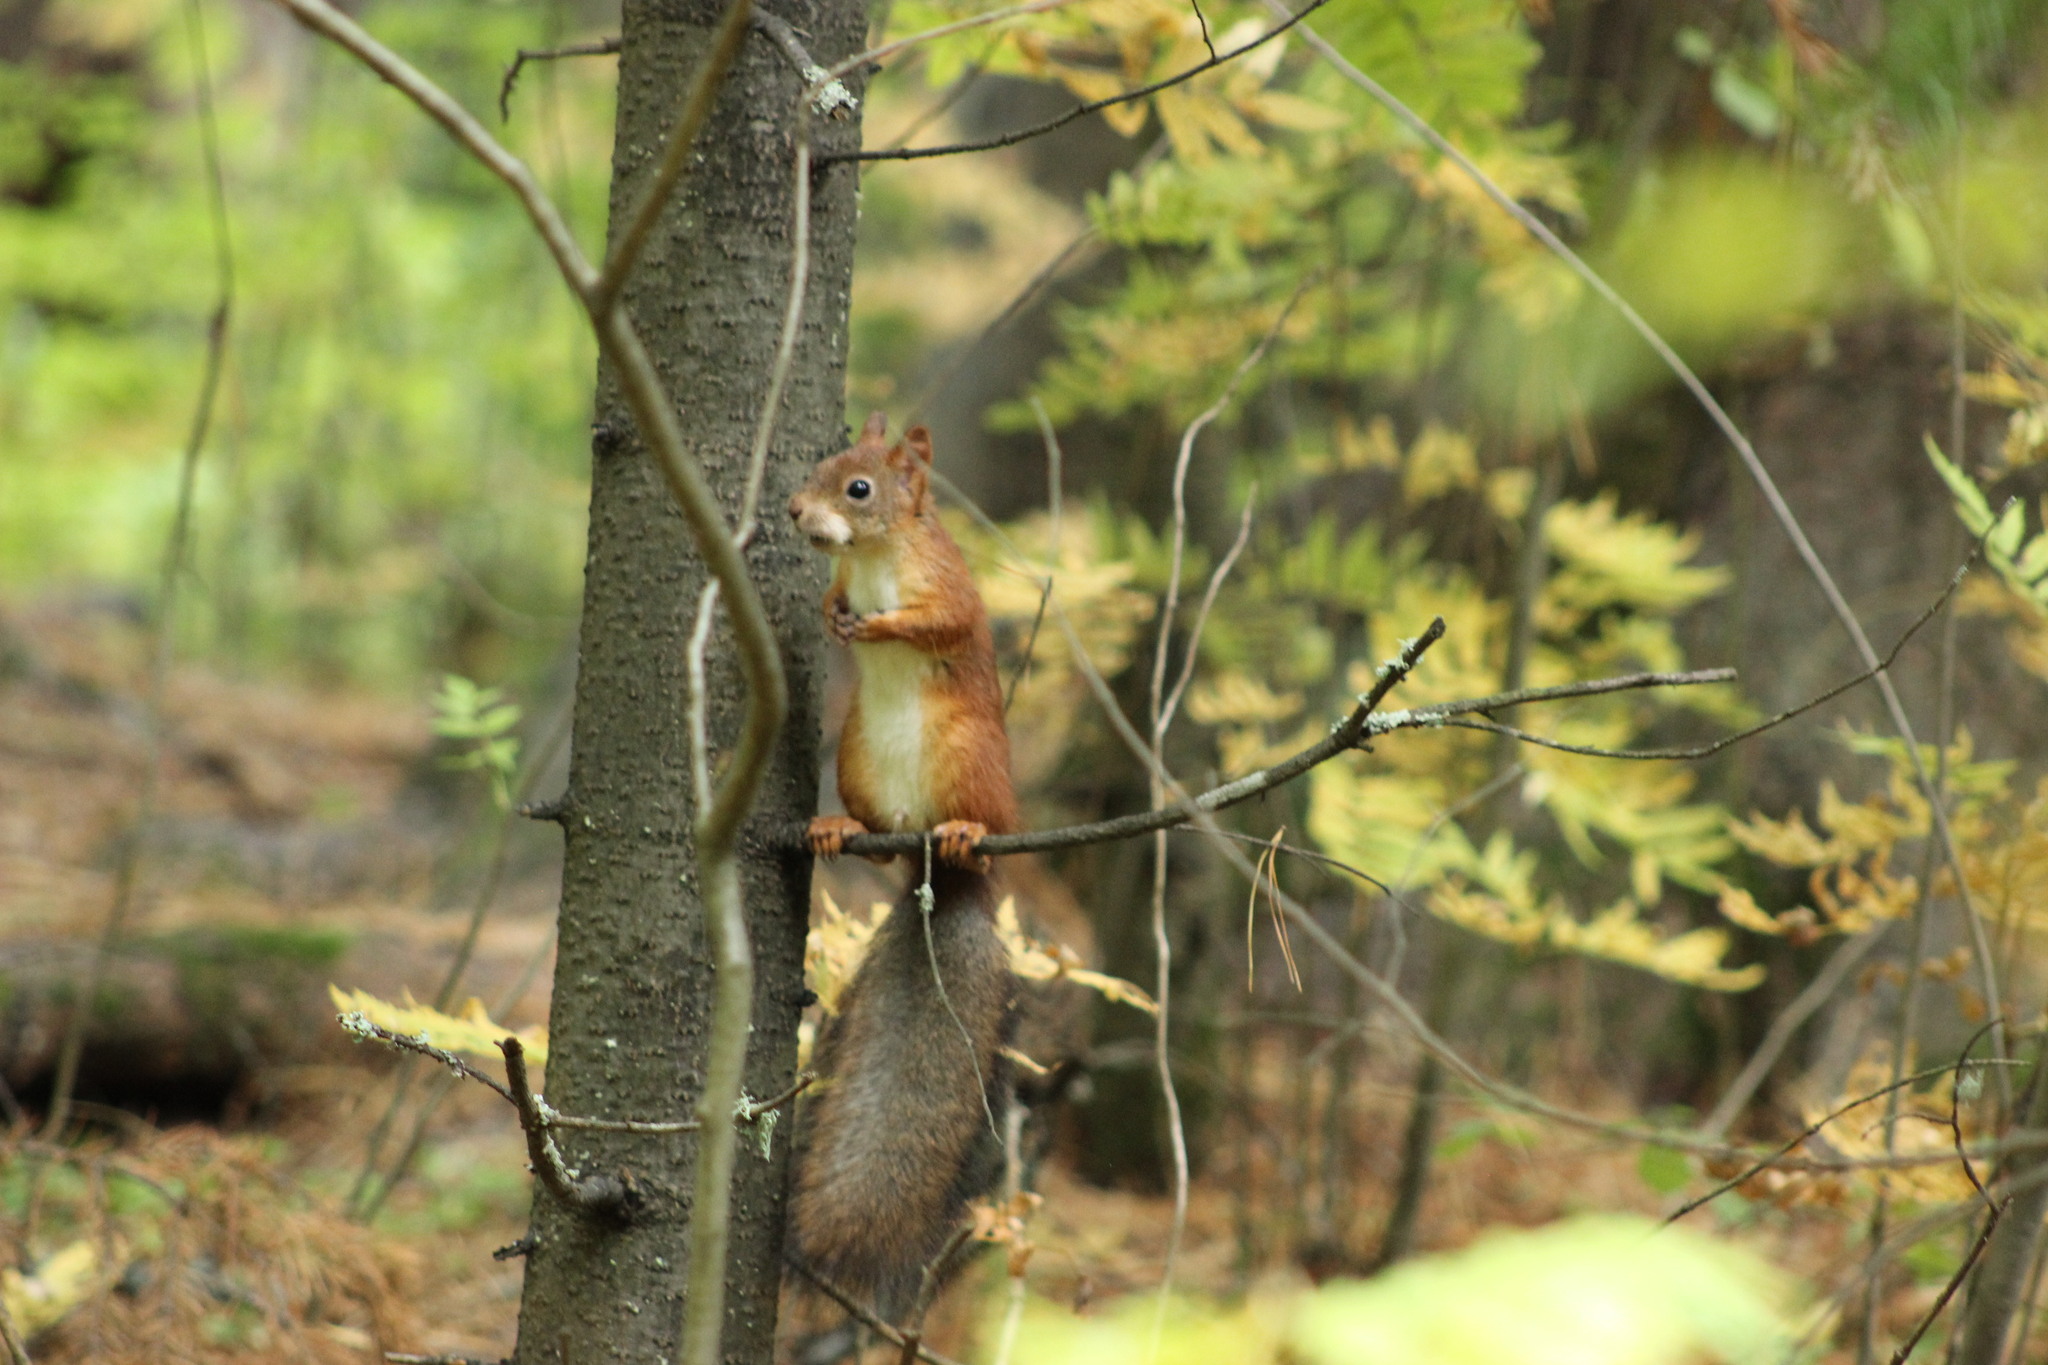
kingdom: Animalia
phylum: Chordata
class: Mammalia
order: Rodentia
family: Sciuridae
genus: Sciurus
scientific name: Sciurus vulgaris
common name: Eurasian red squirrel
